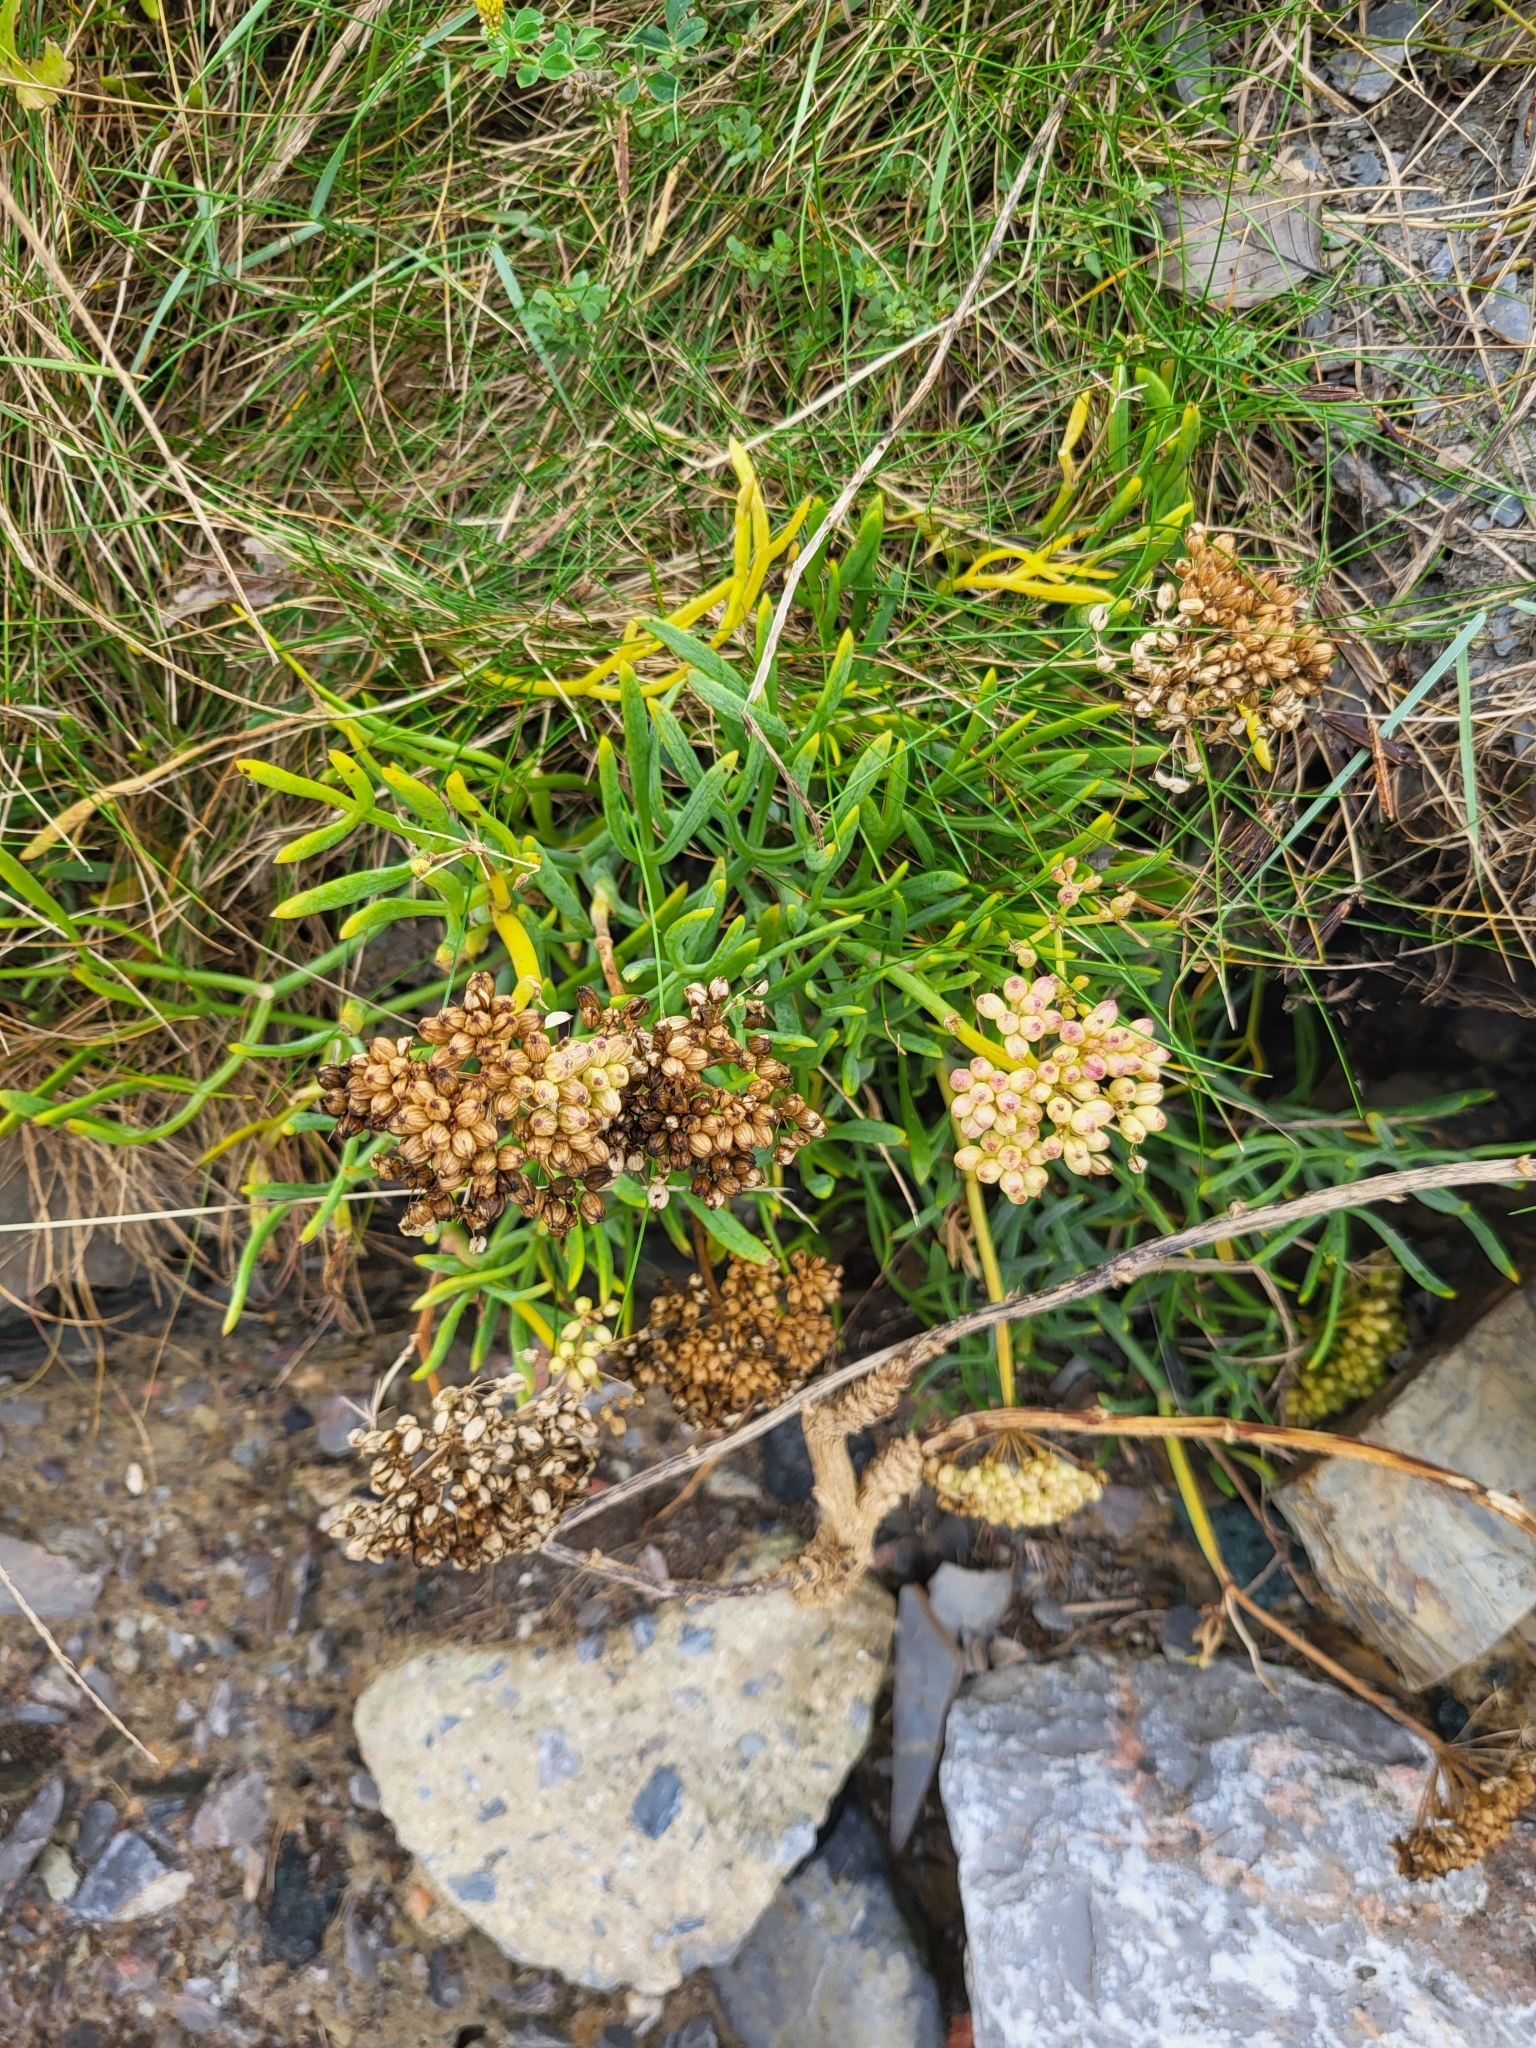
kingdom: Plantae
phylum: Tracheophyta
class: Magnoliopsida
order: Apiales
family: Apiaceae
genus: Crithmum
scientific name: Crithmum maritimum
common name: Rock samphire
